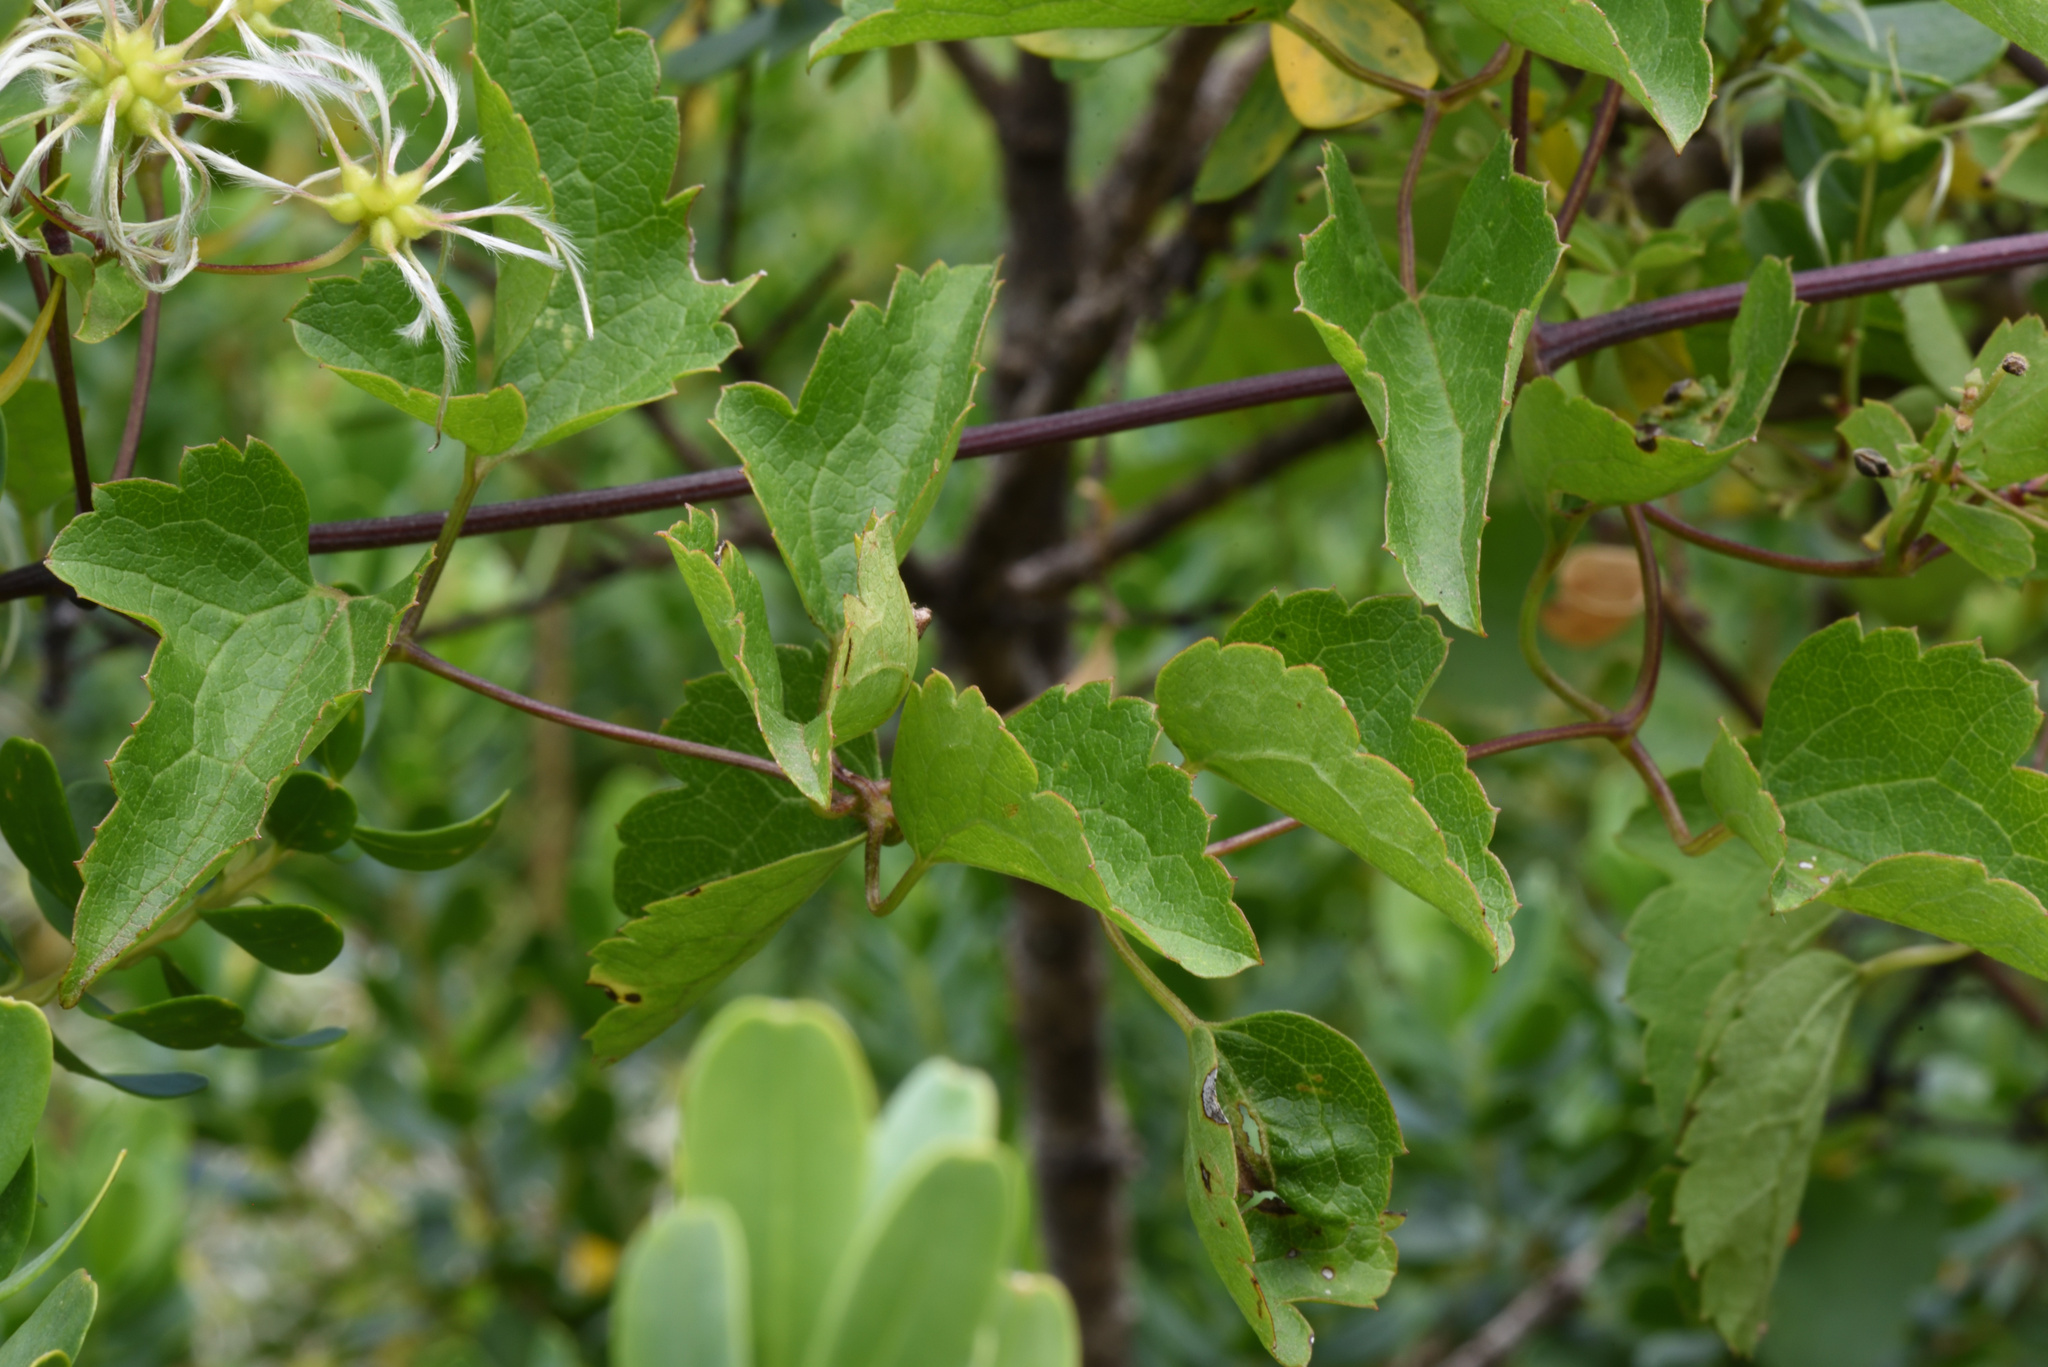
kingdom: Plantae
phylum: Tracheophyta
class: Magnoliopsida
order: Ranunculales
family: Ranunculaceae
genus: Clematis
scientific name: Clematis brachiata
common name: Traveler's-joy
